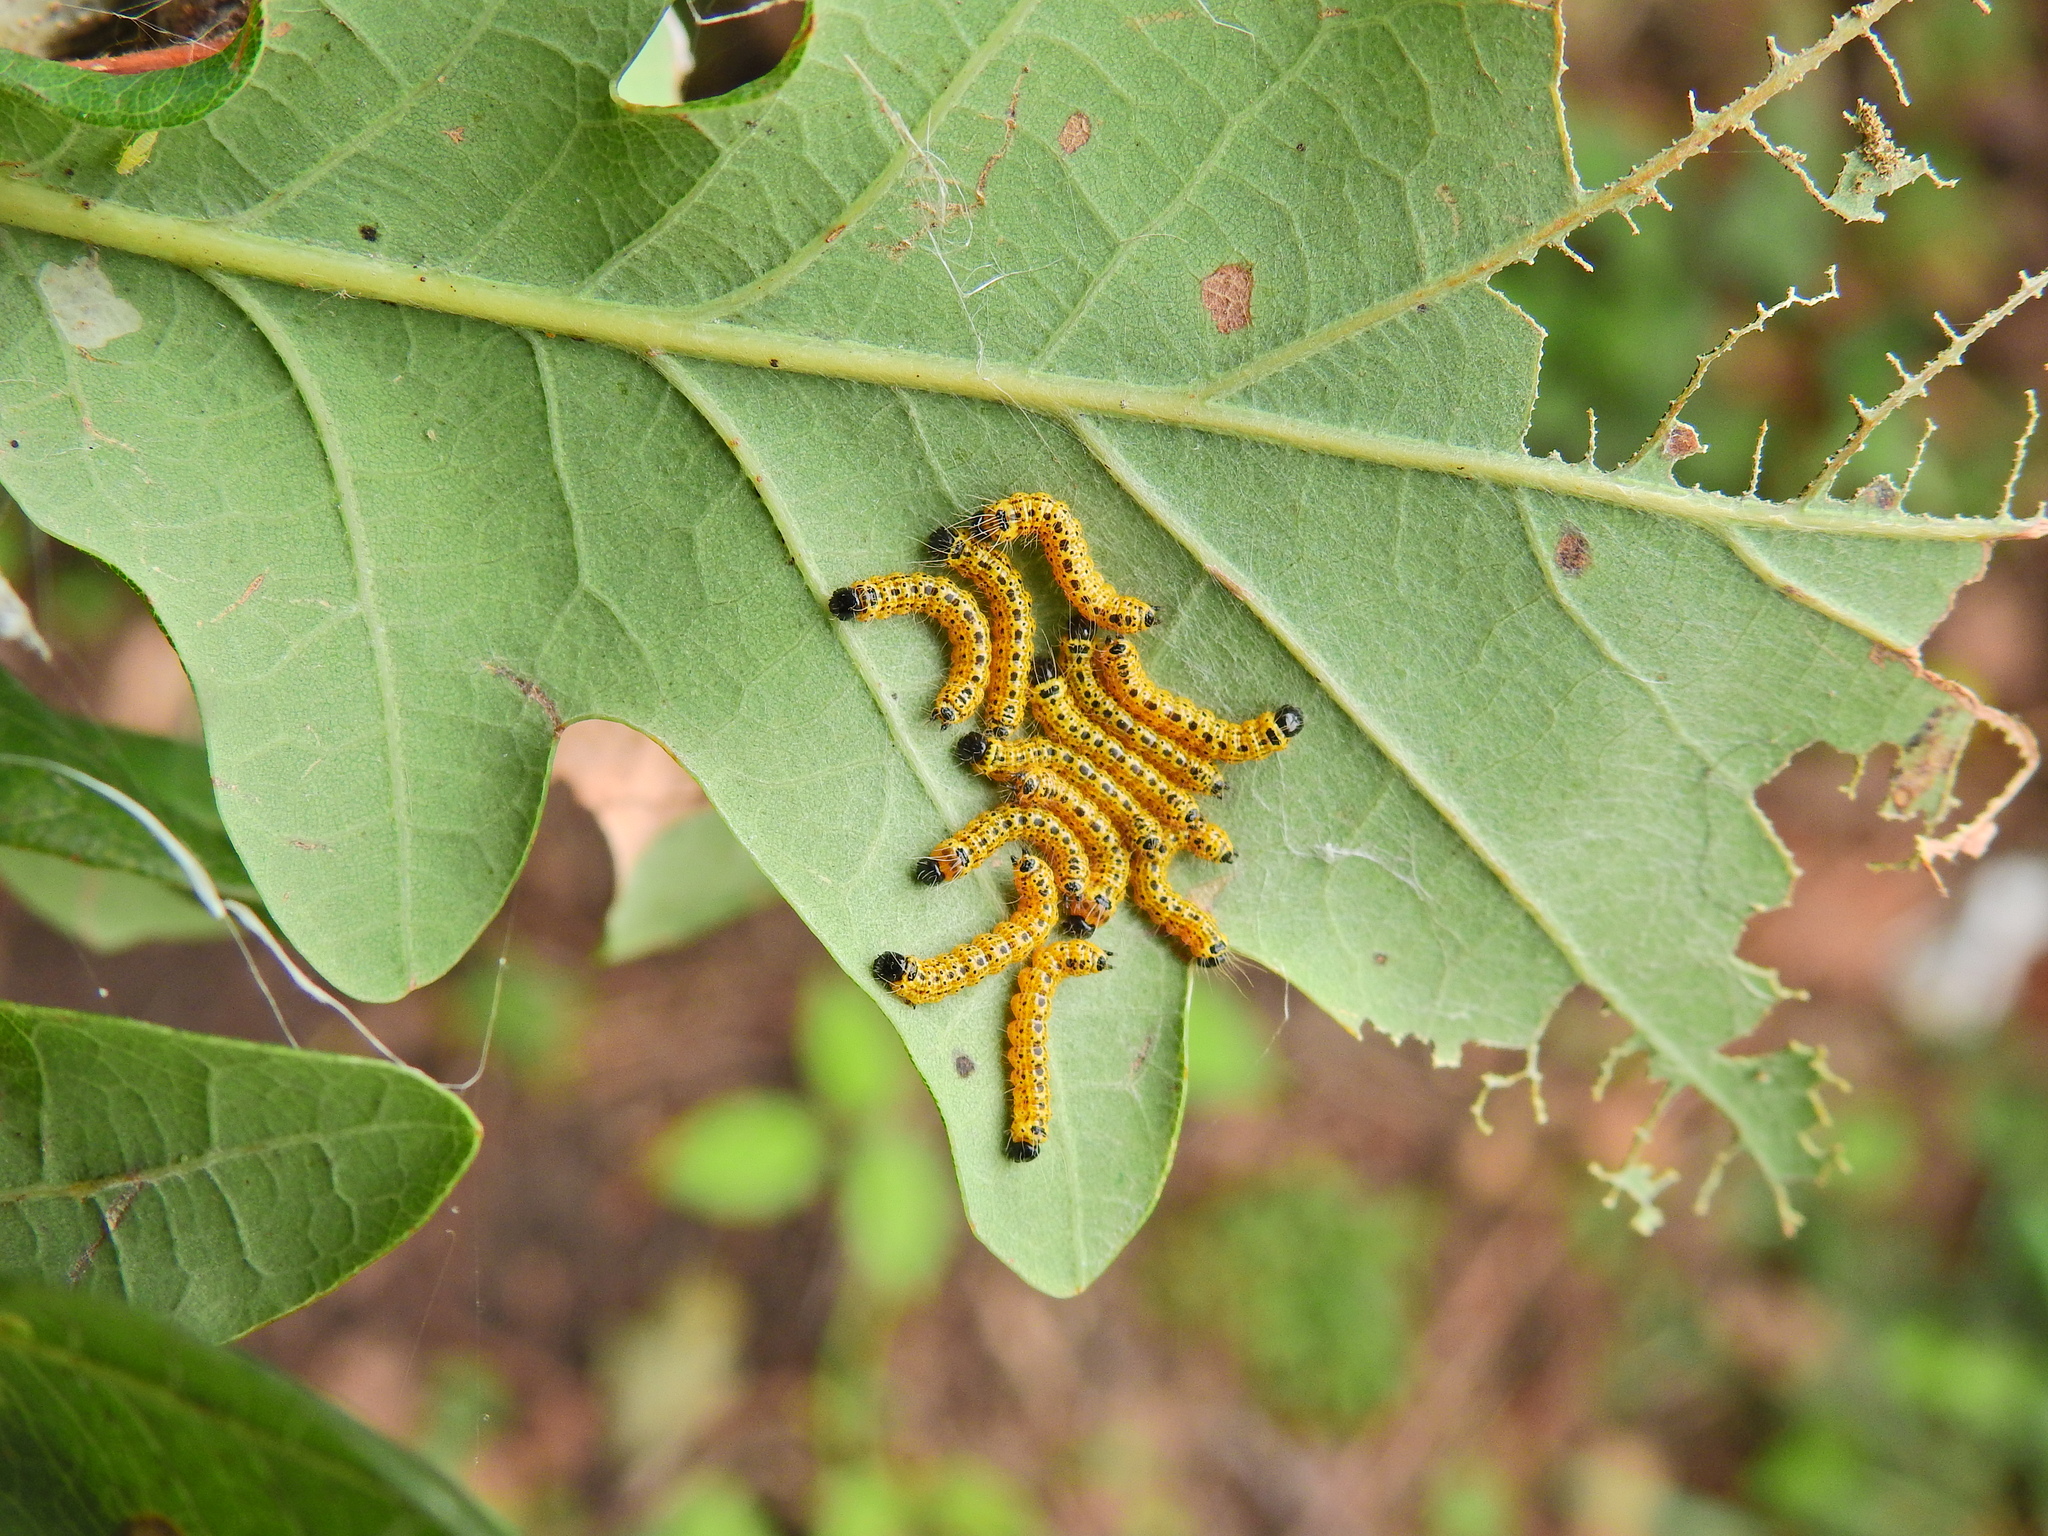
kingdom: Animalia
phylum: Arthropoda
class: Insecta
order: Lepidoptera
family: Notodontidae
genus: Phalera
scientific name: Phalera bucephala
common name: Buff-tip
